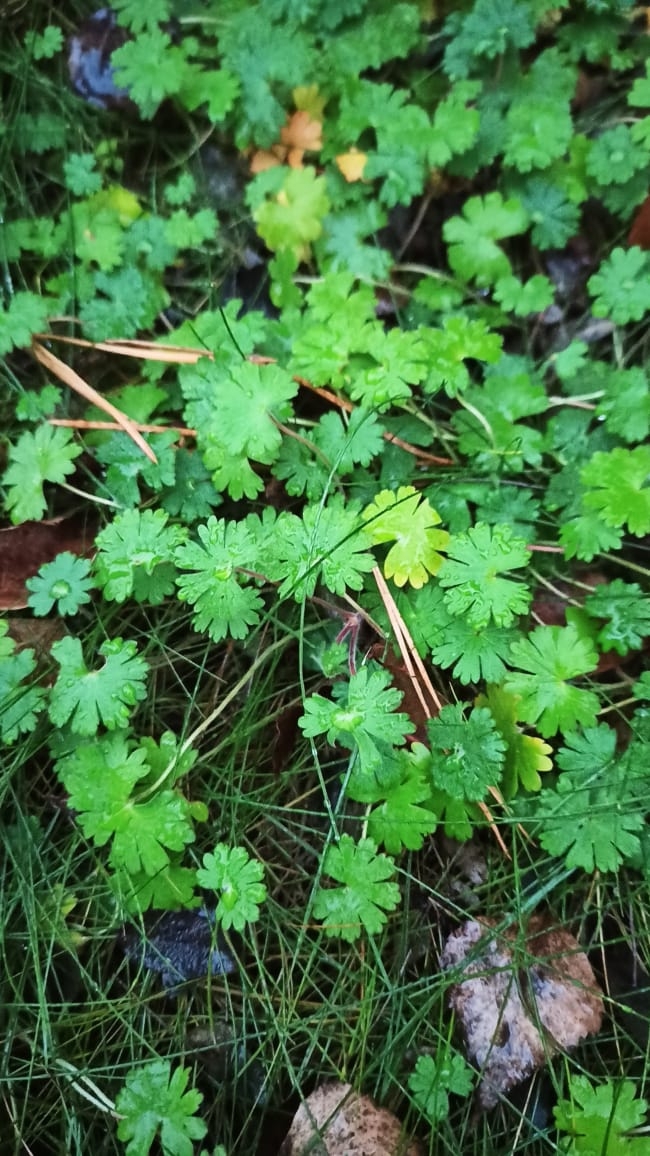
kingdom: Plantae
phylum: Tracheophyta
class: Magnoliopsida
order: Geraniales
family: Geraniaceae
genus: Geranium
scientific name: Geranium pusillum
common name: Small geranium
